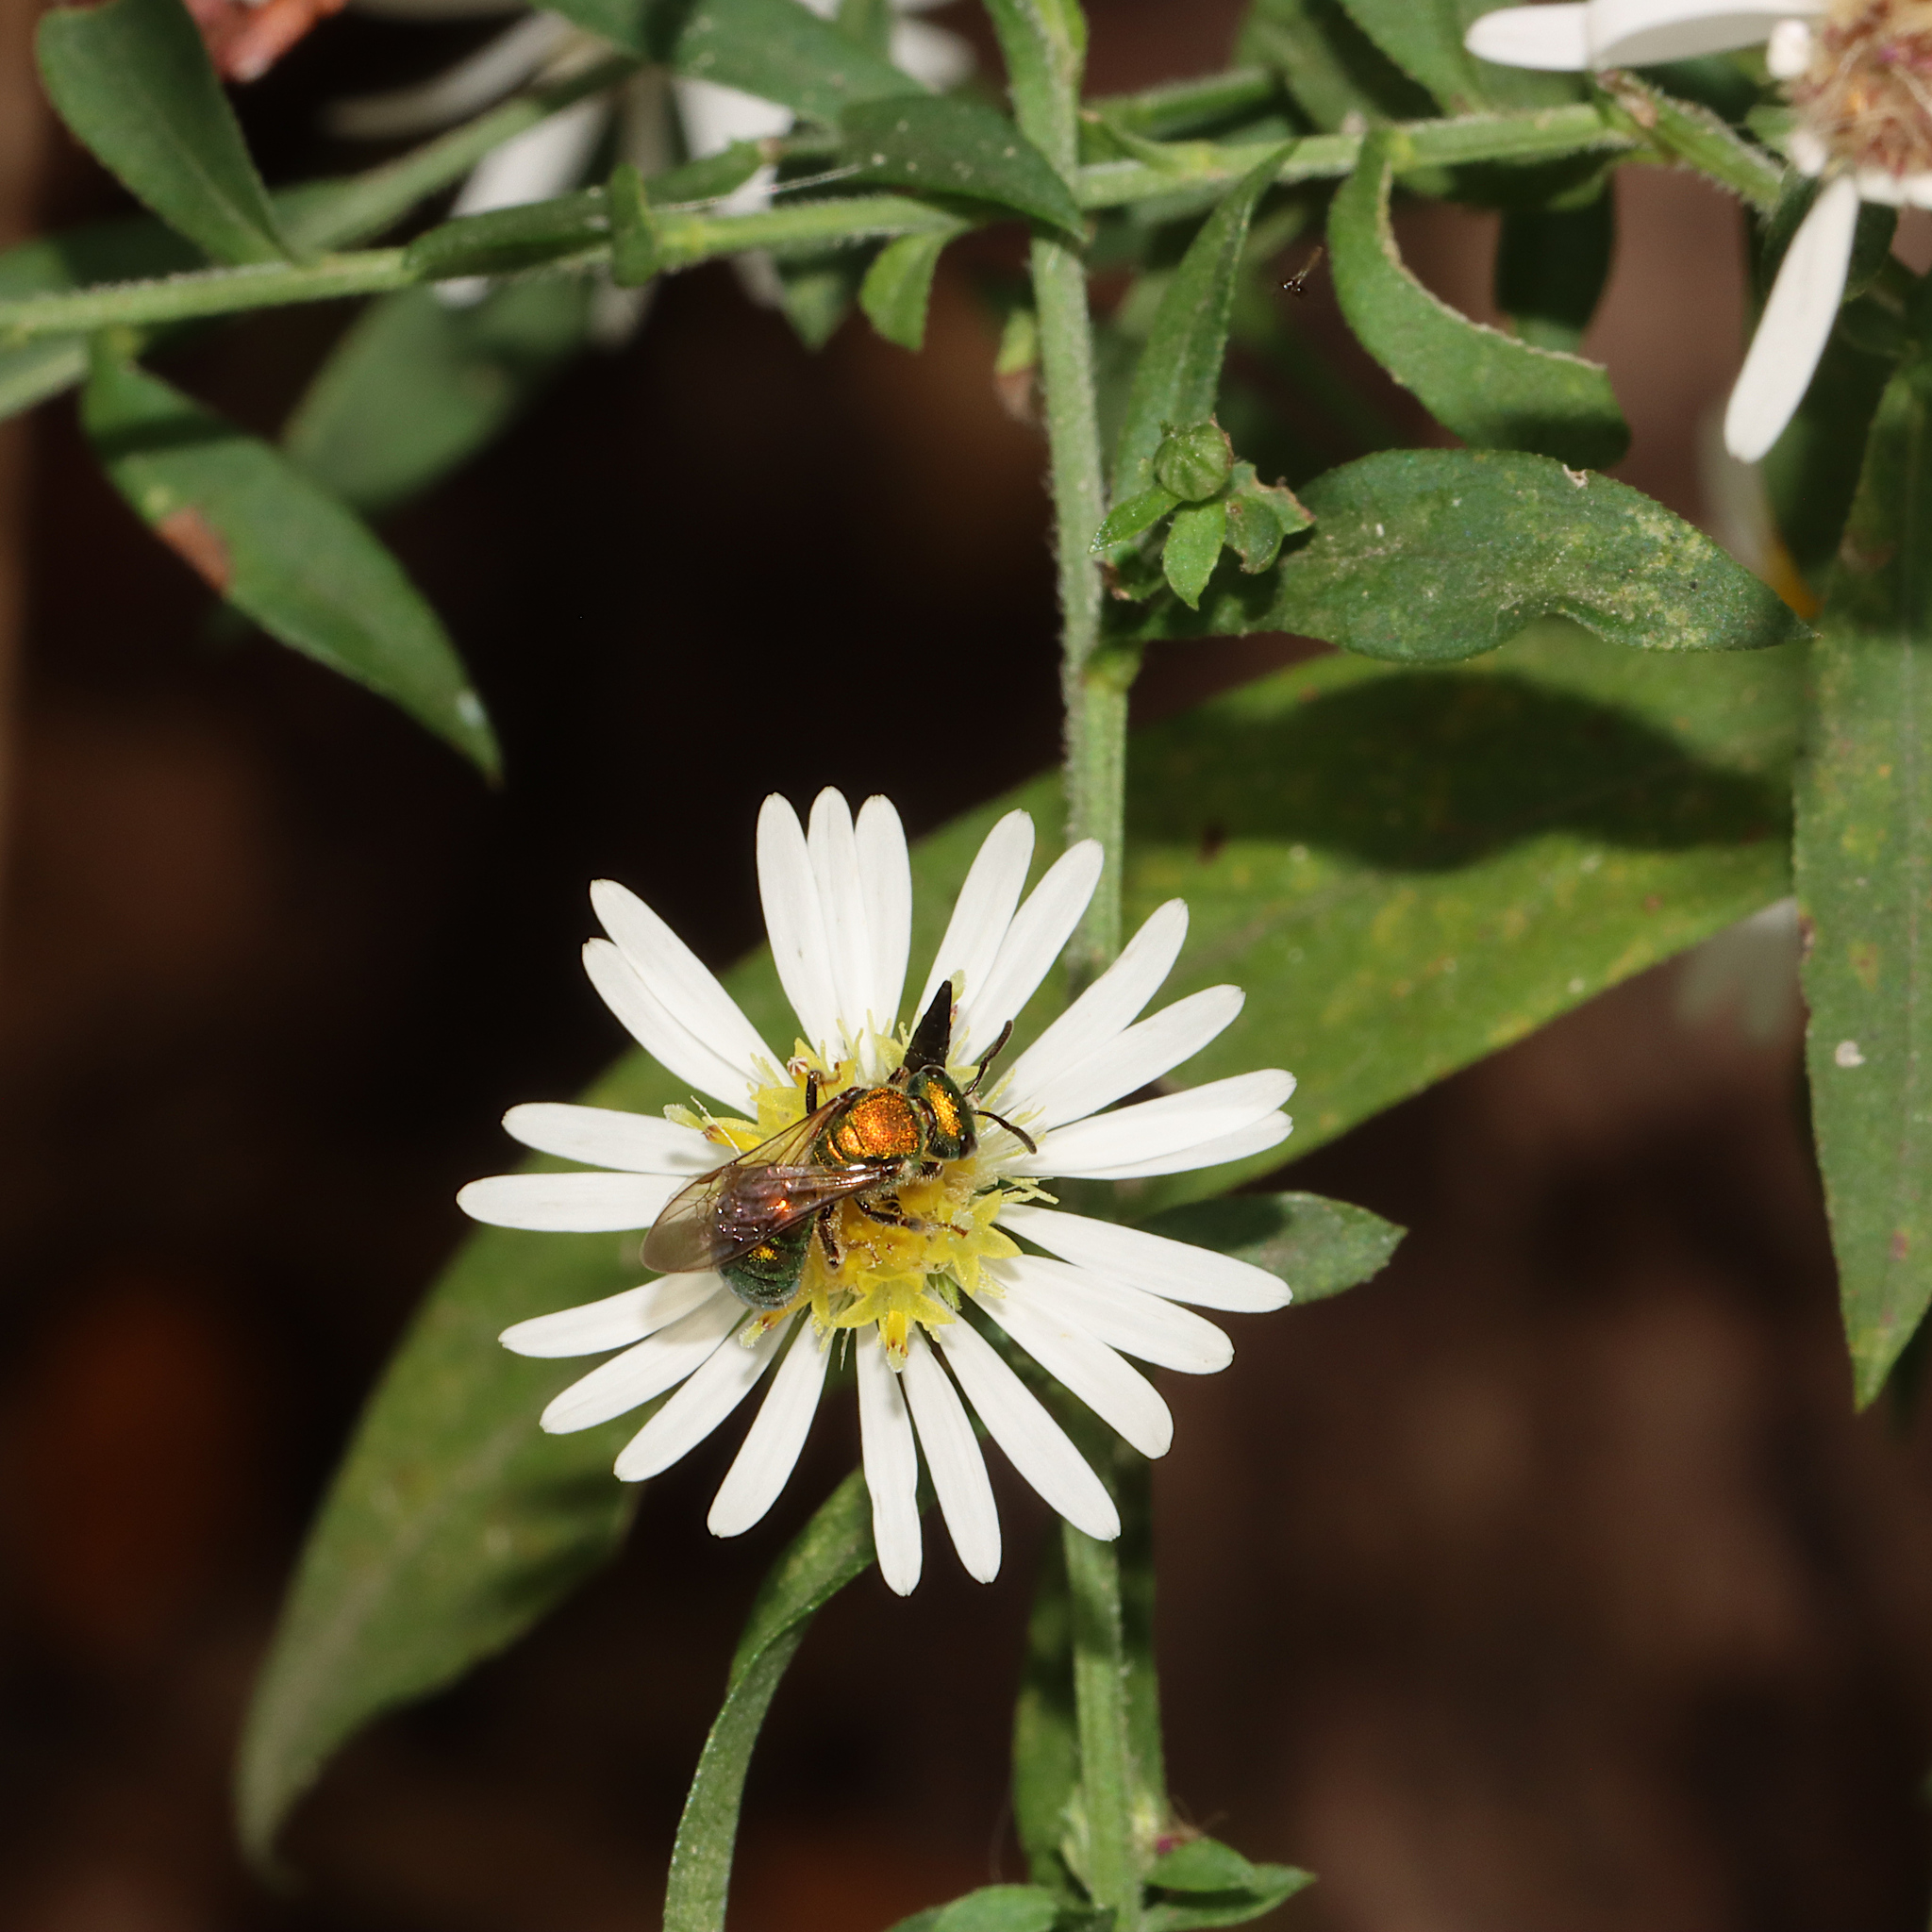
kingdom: Animalia
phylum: Arthropoda
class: Insecta
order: Hymenoptera
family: Halictidae
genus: Augochlora
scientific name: Augochlora pura
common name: Pure green sweat bee
